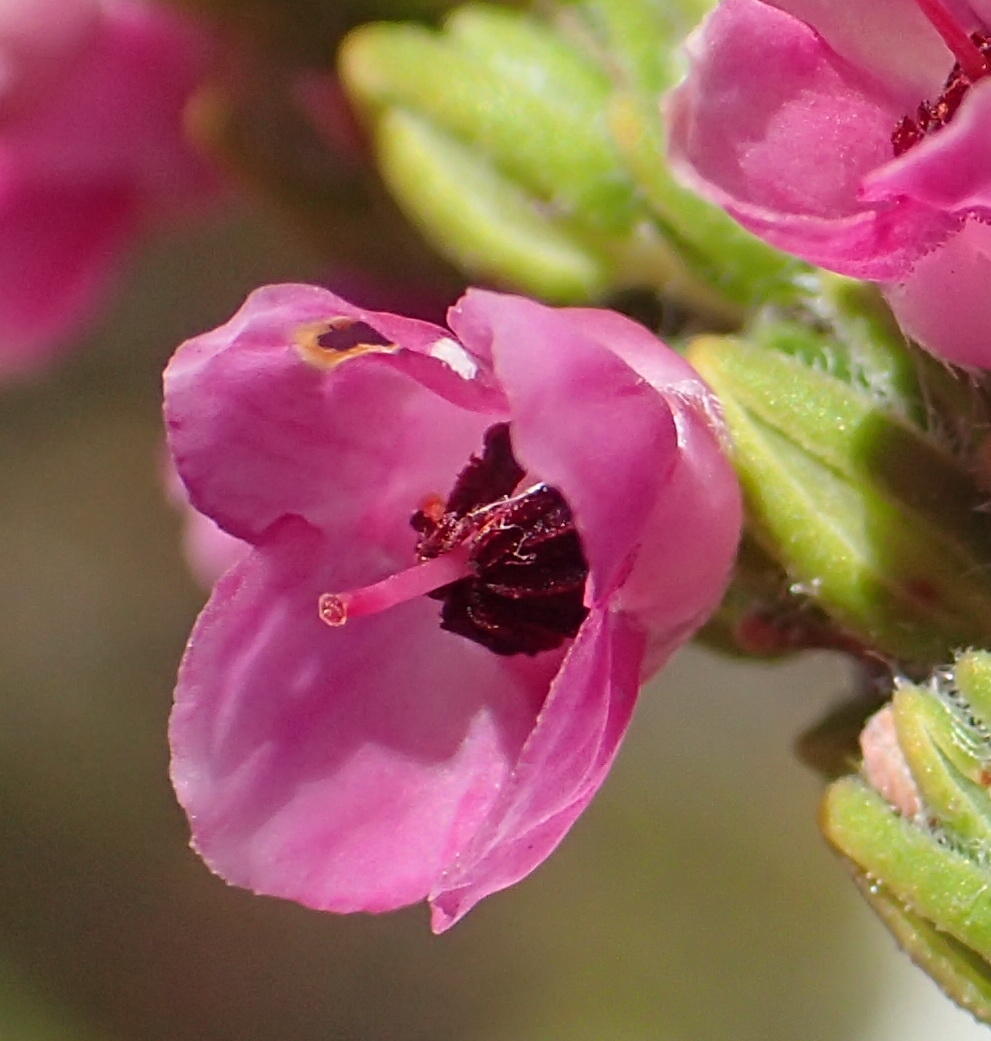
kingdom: Plantae
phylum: Tracheophyta
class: Magnoliopsida
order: Ericales
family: Ericaceae
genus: Erica
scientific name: Erica nervata
